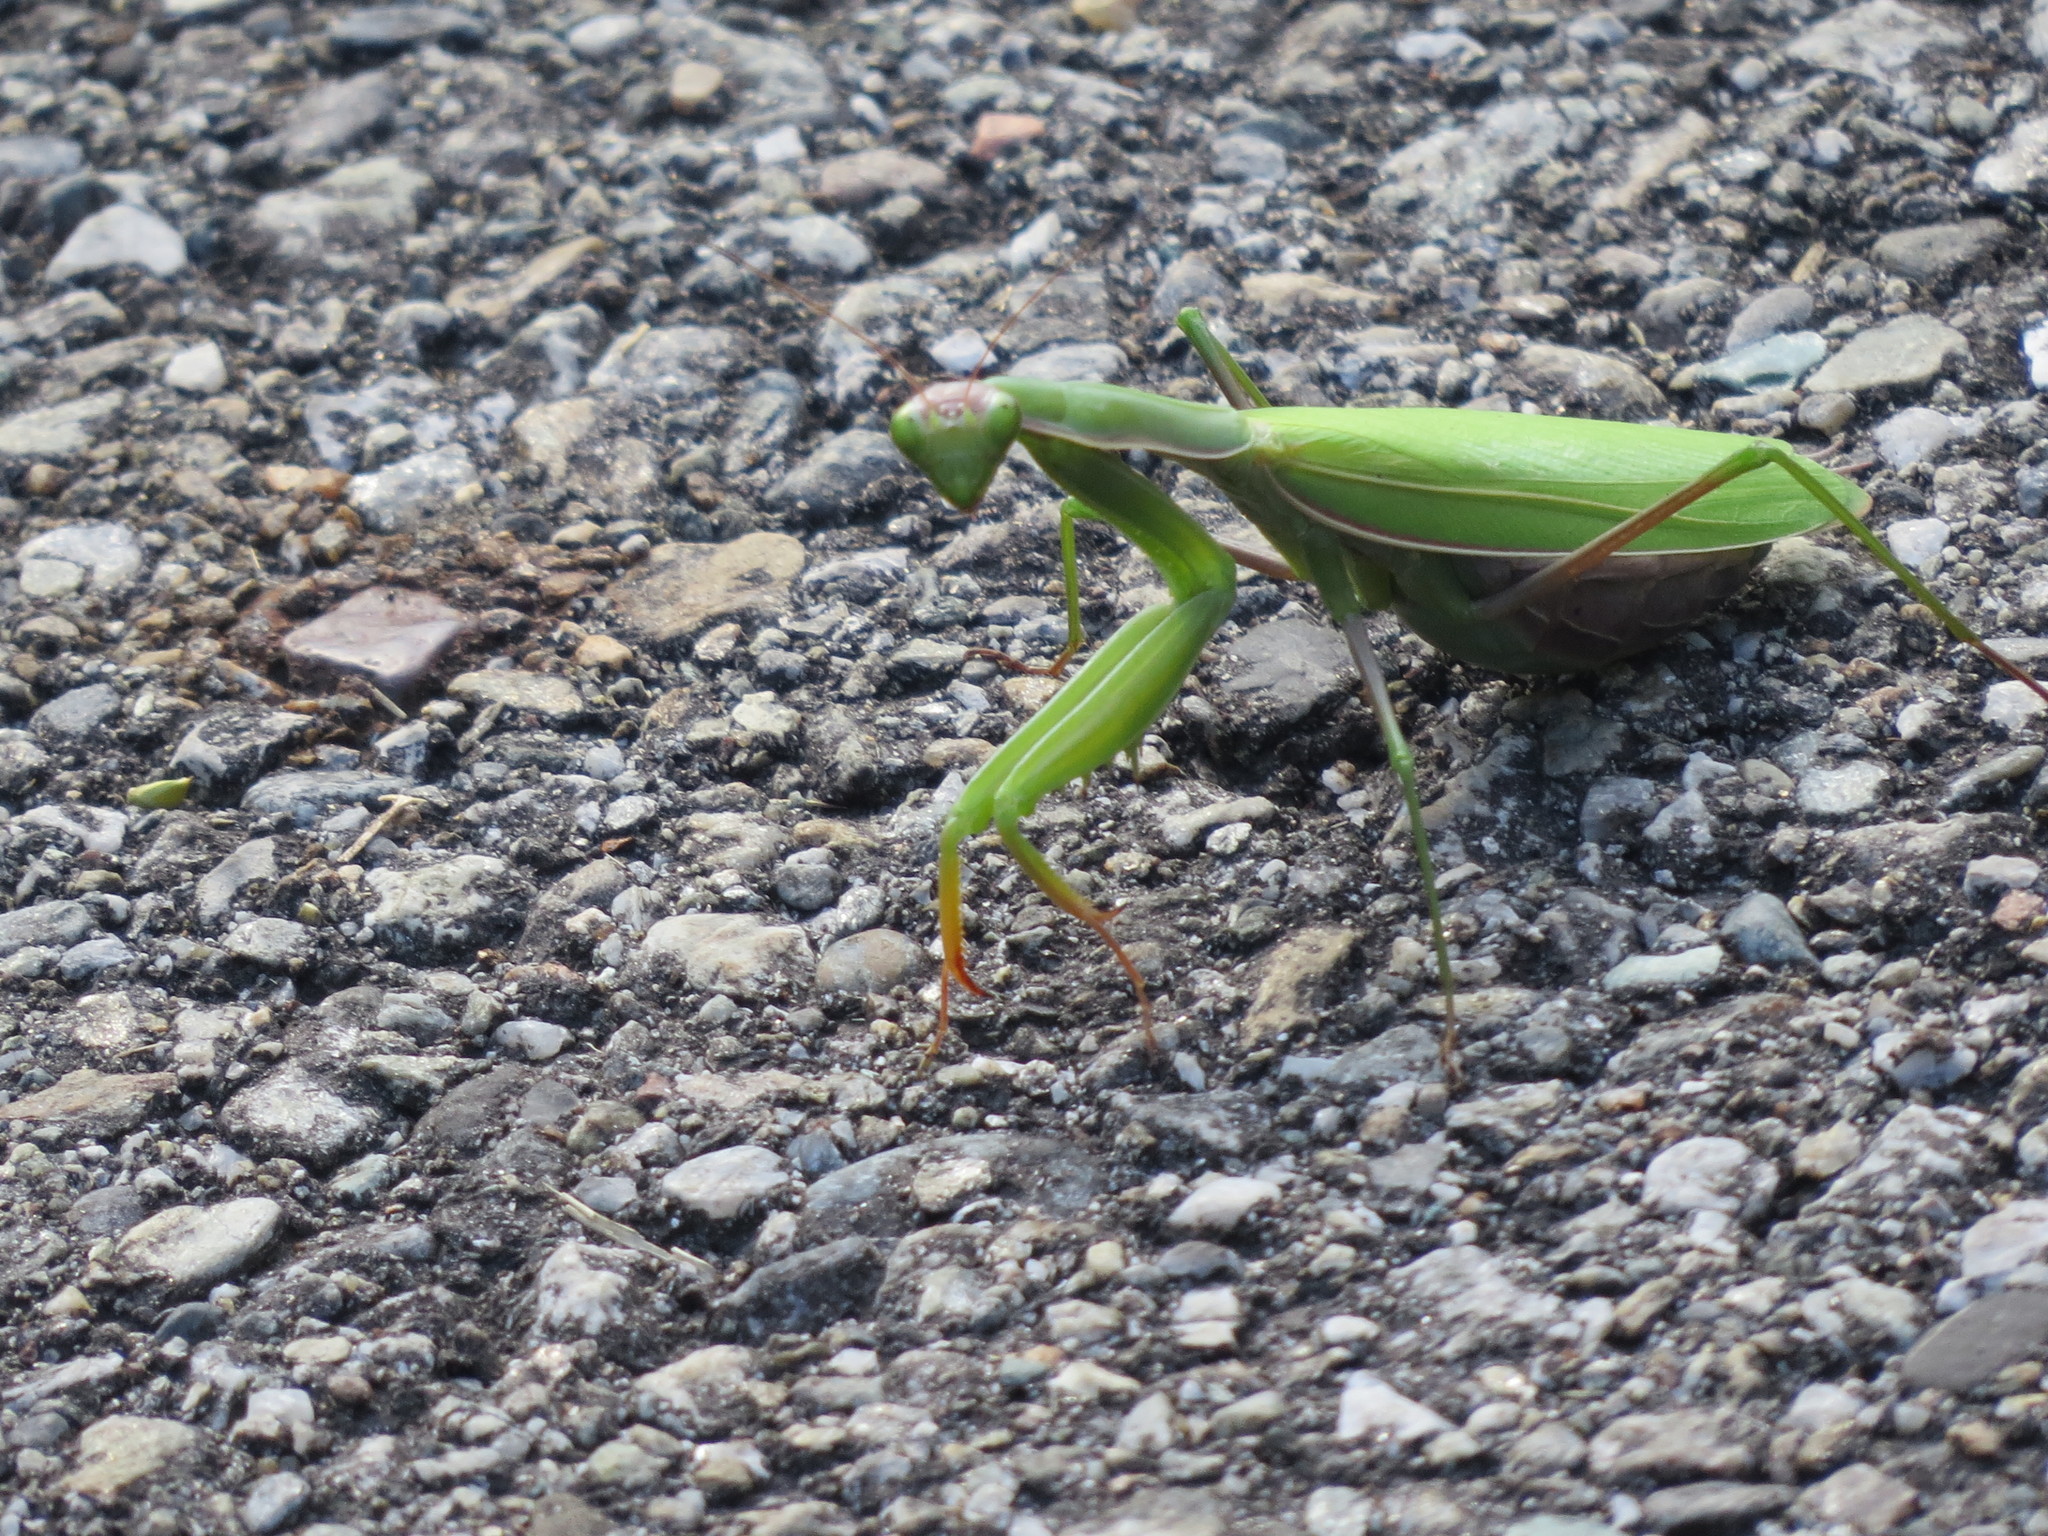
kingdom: Animalia
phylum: Arthropoda
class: Insecta
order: Mantodea
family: Mantidae
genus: Mantis
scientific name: Mantis religiosa
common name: Praying mantis
